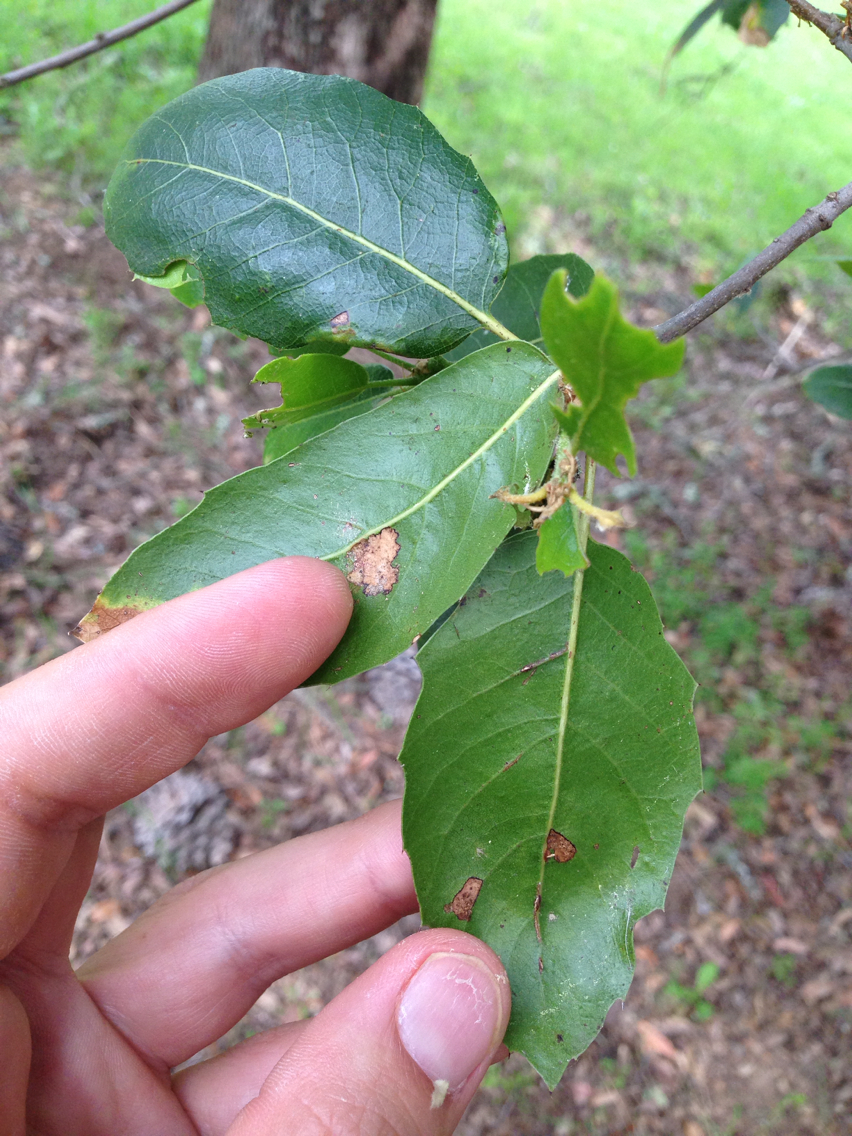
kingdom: Plantae
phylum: Tracheophyta
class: Magnoliopsida
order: Fagales
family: Fagaceae
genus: Quercus
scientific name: Quercus wislizeni
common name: Interior live oak
